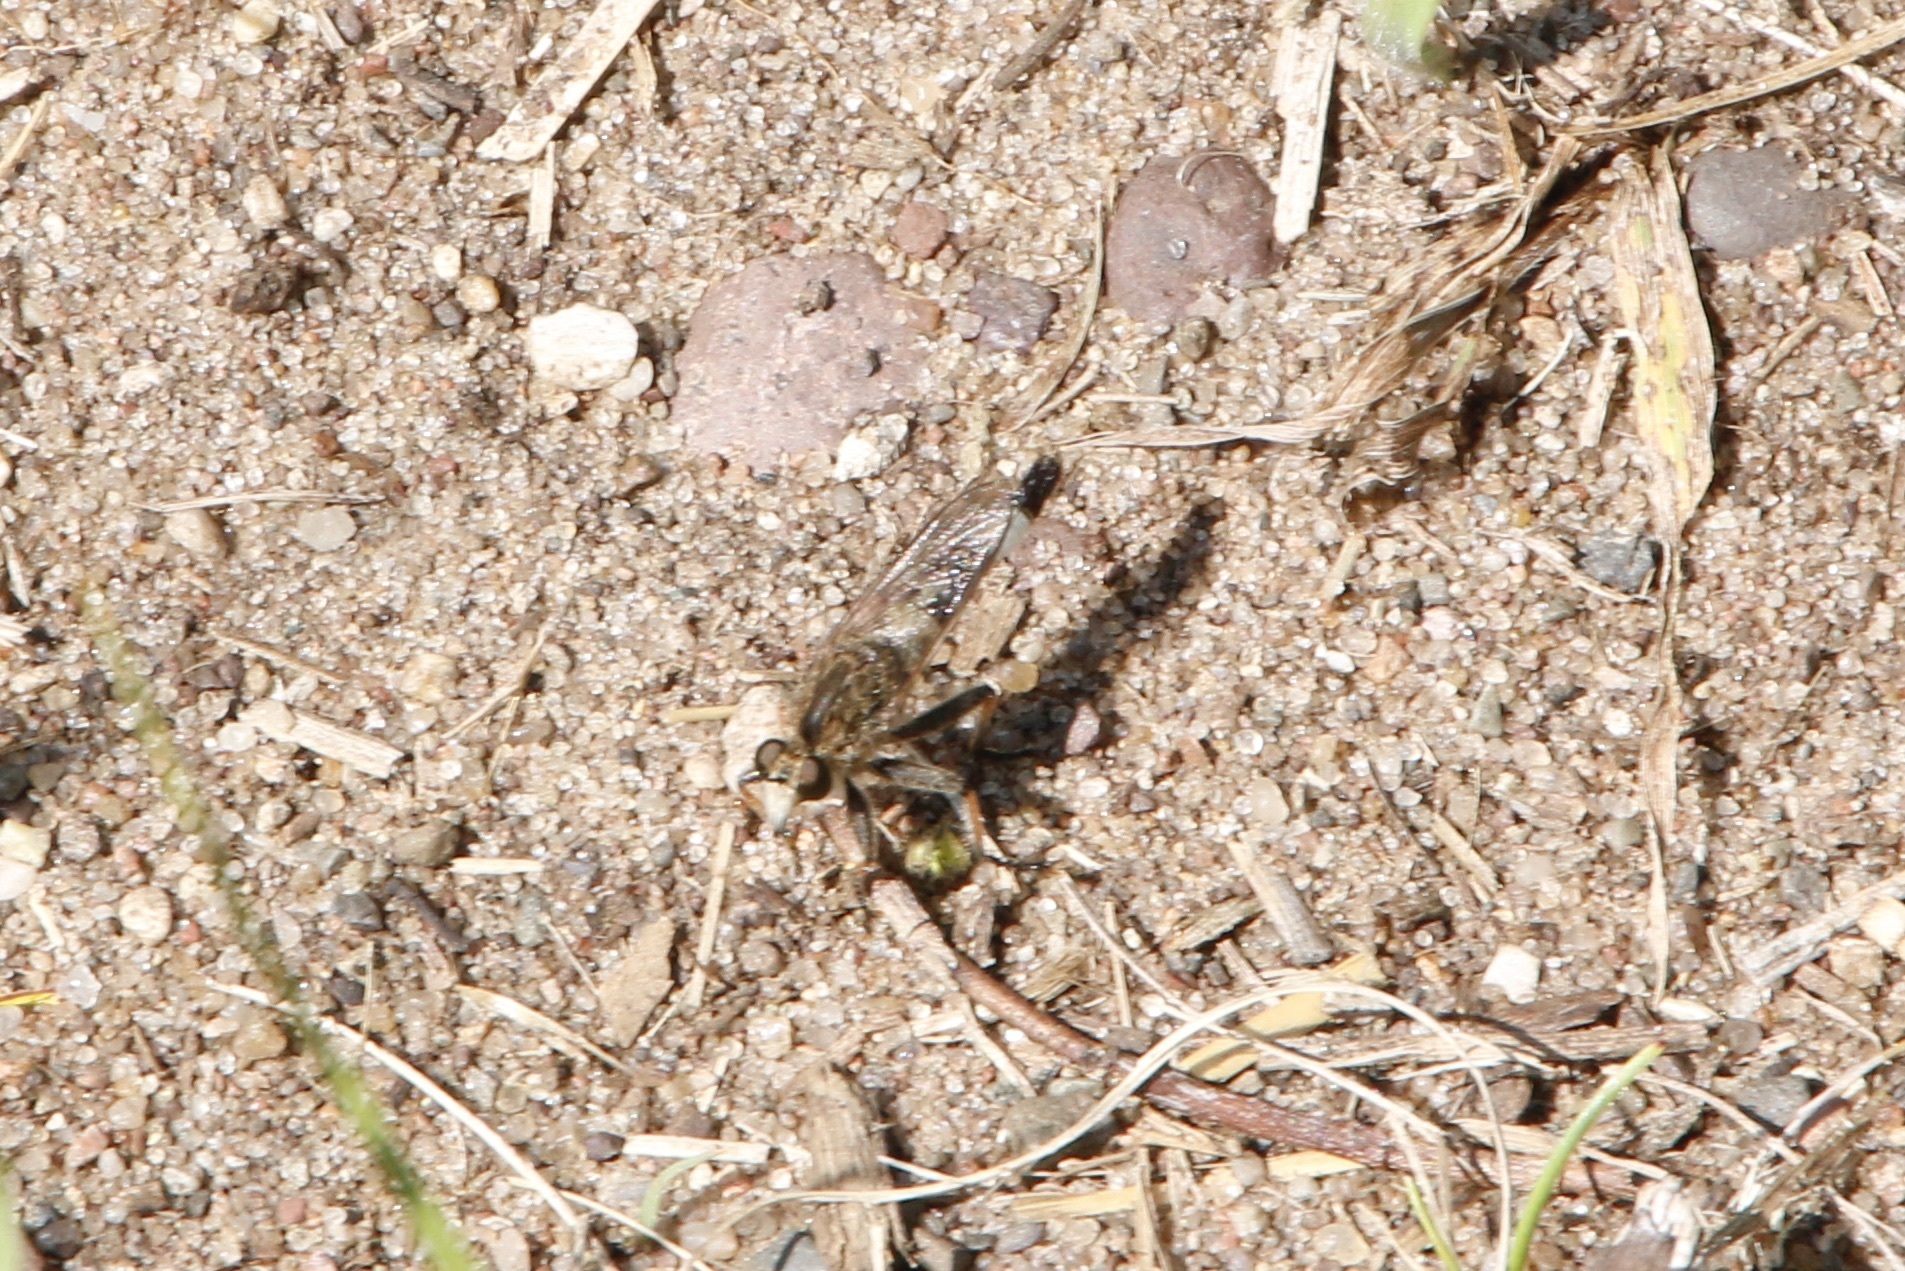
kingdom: Animalia
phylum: Arthropoda
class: Insecta
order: Diptera
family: Asilidae
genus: Efferia
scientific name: Efferia albibarbis
